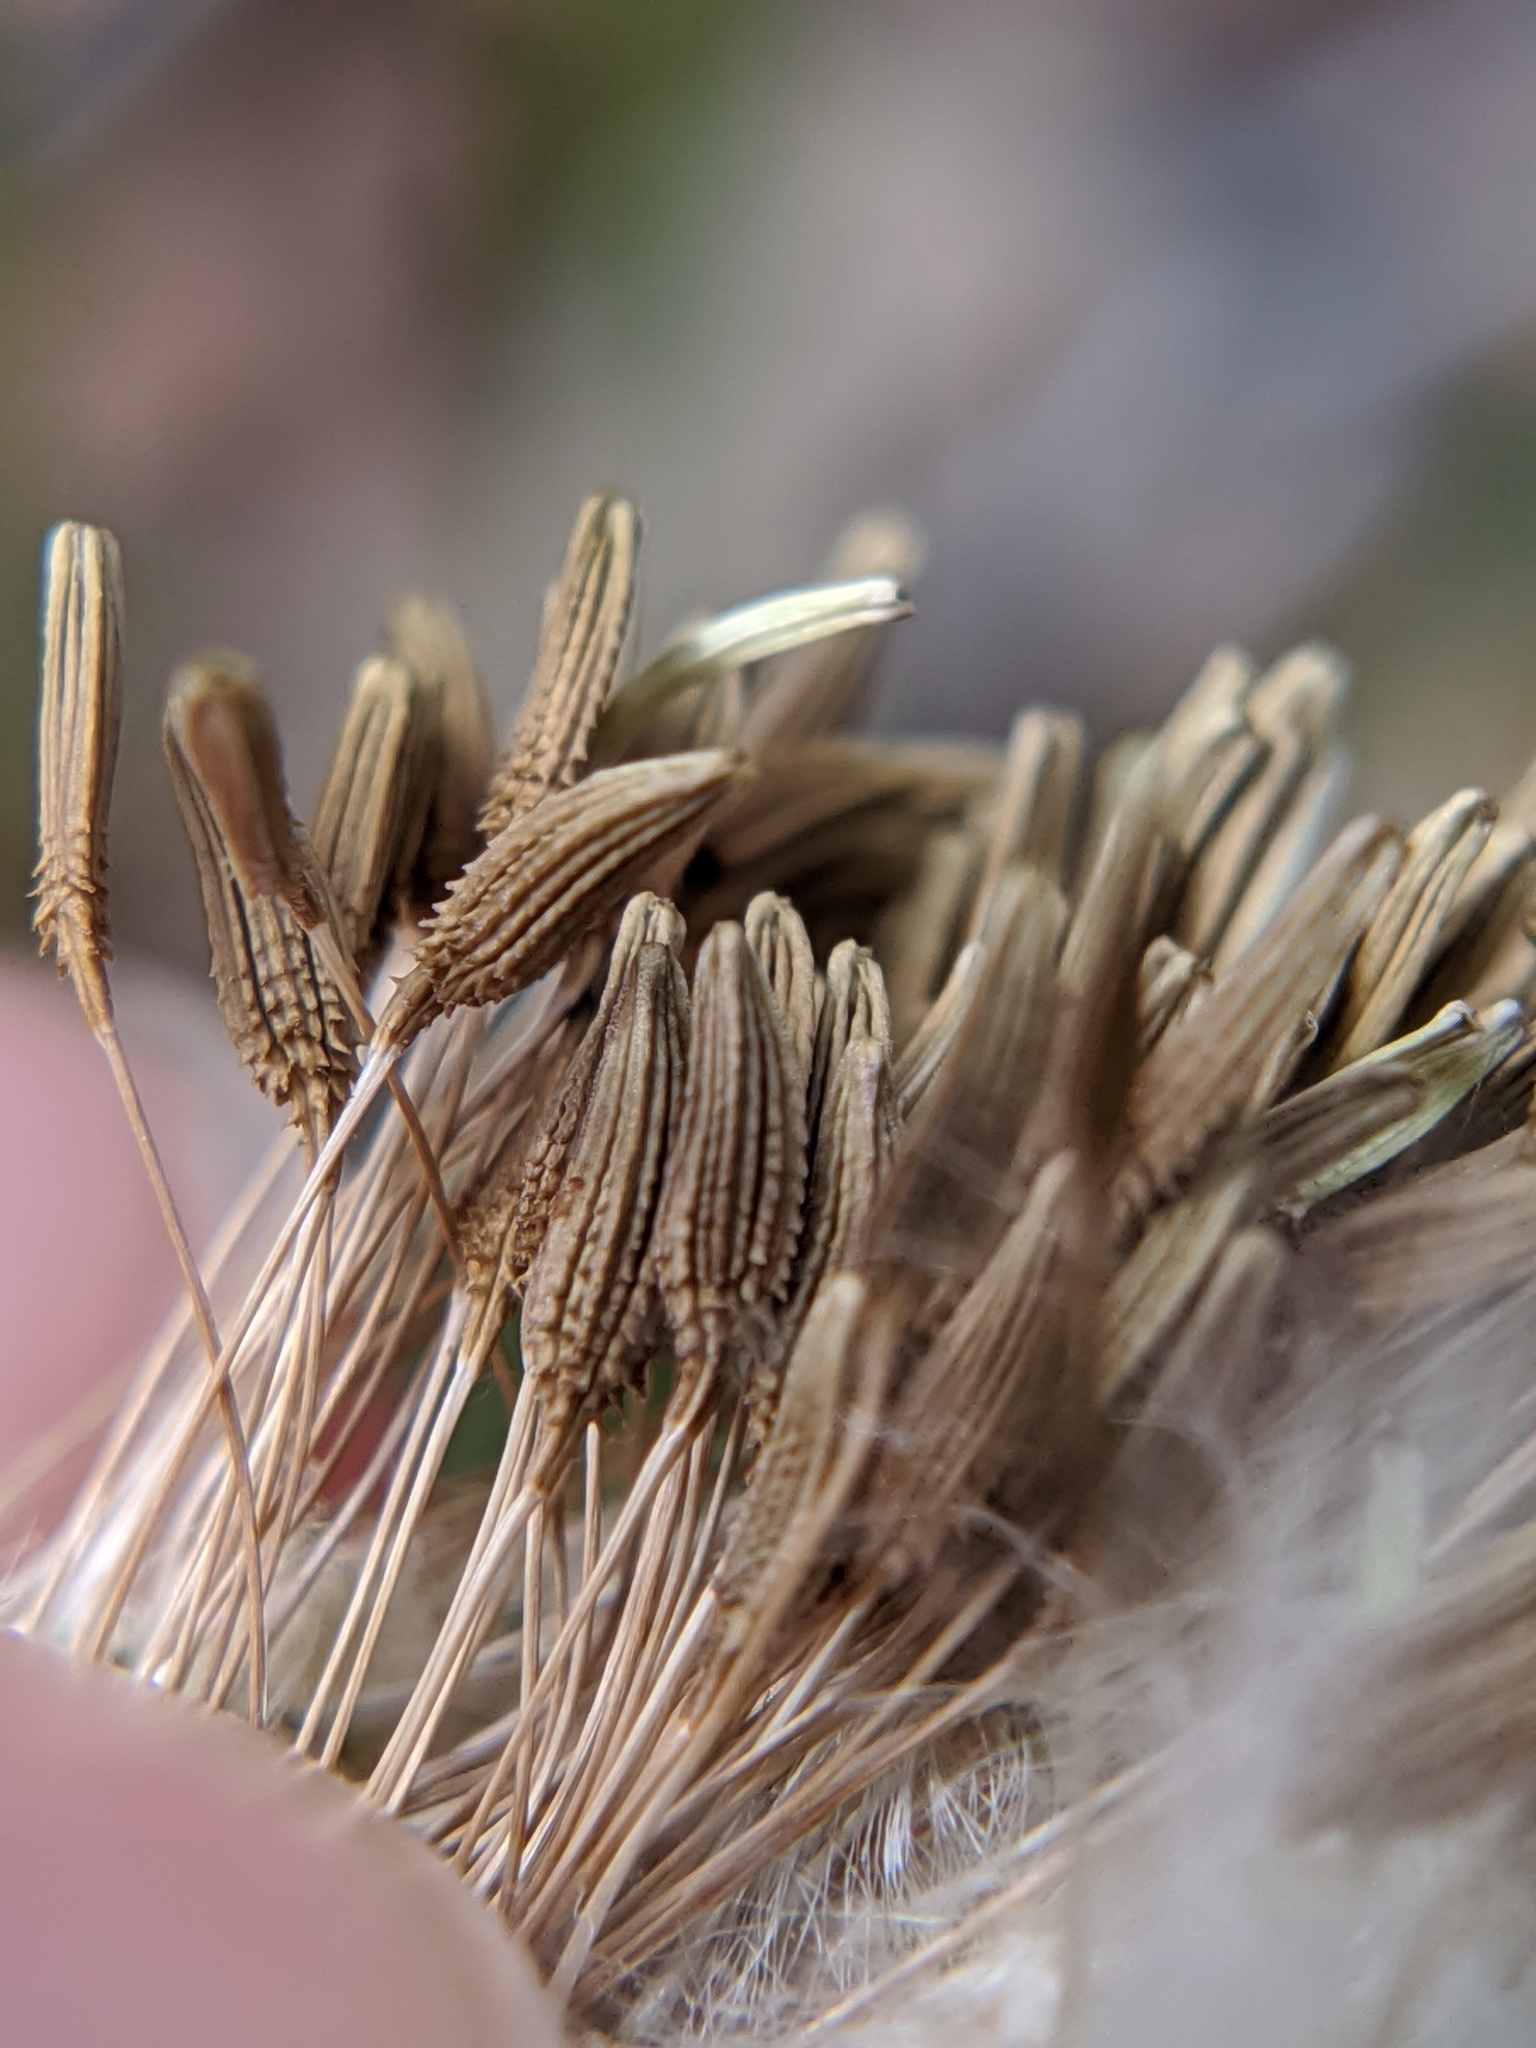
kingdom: Plantae
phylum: Tracheophyta
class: Magnoliopsida
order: Asterales
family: Asteraceae
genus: Taraxacum
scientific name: Taraxacum officinale
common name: Common dandelion
